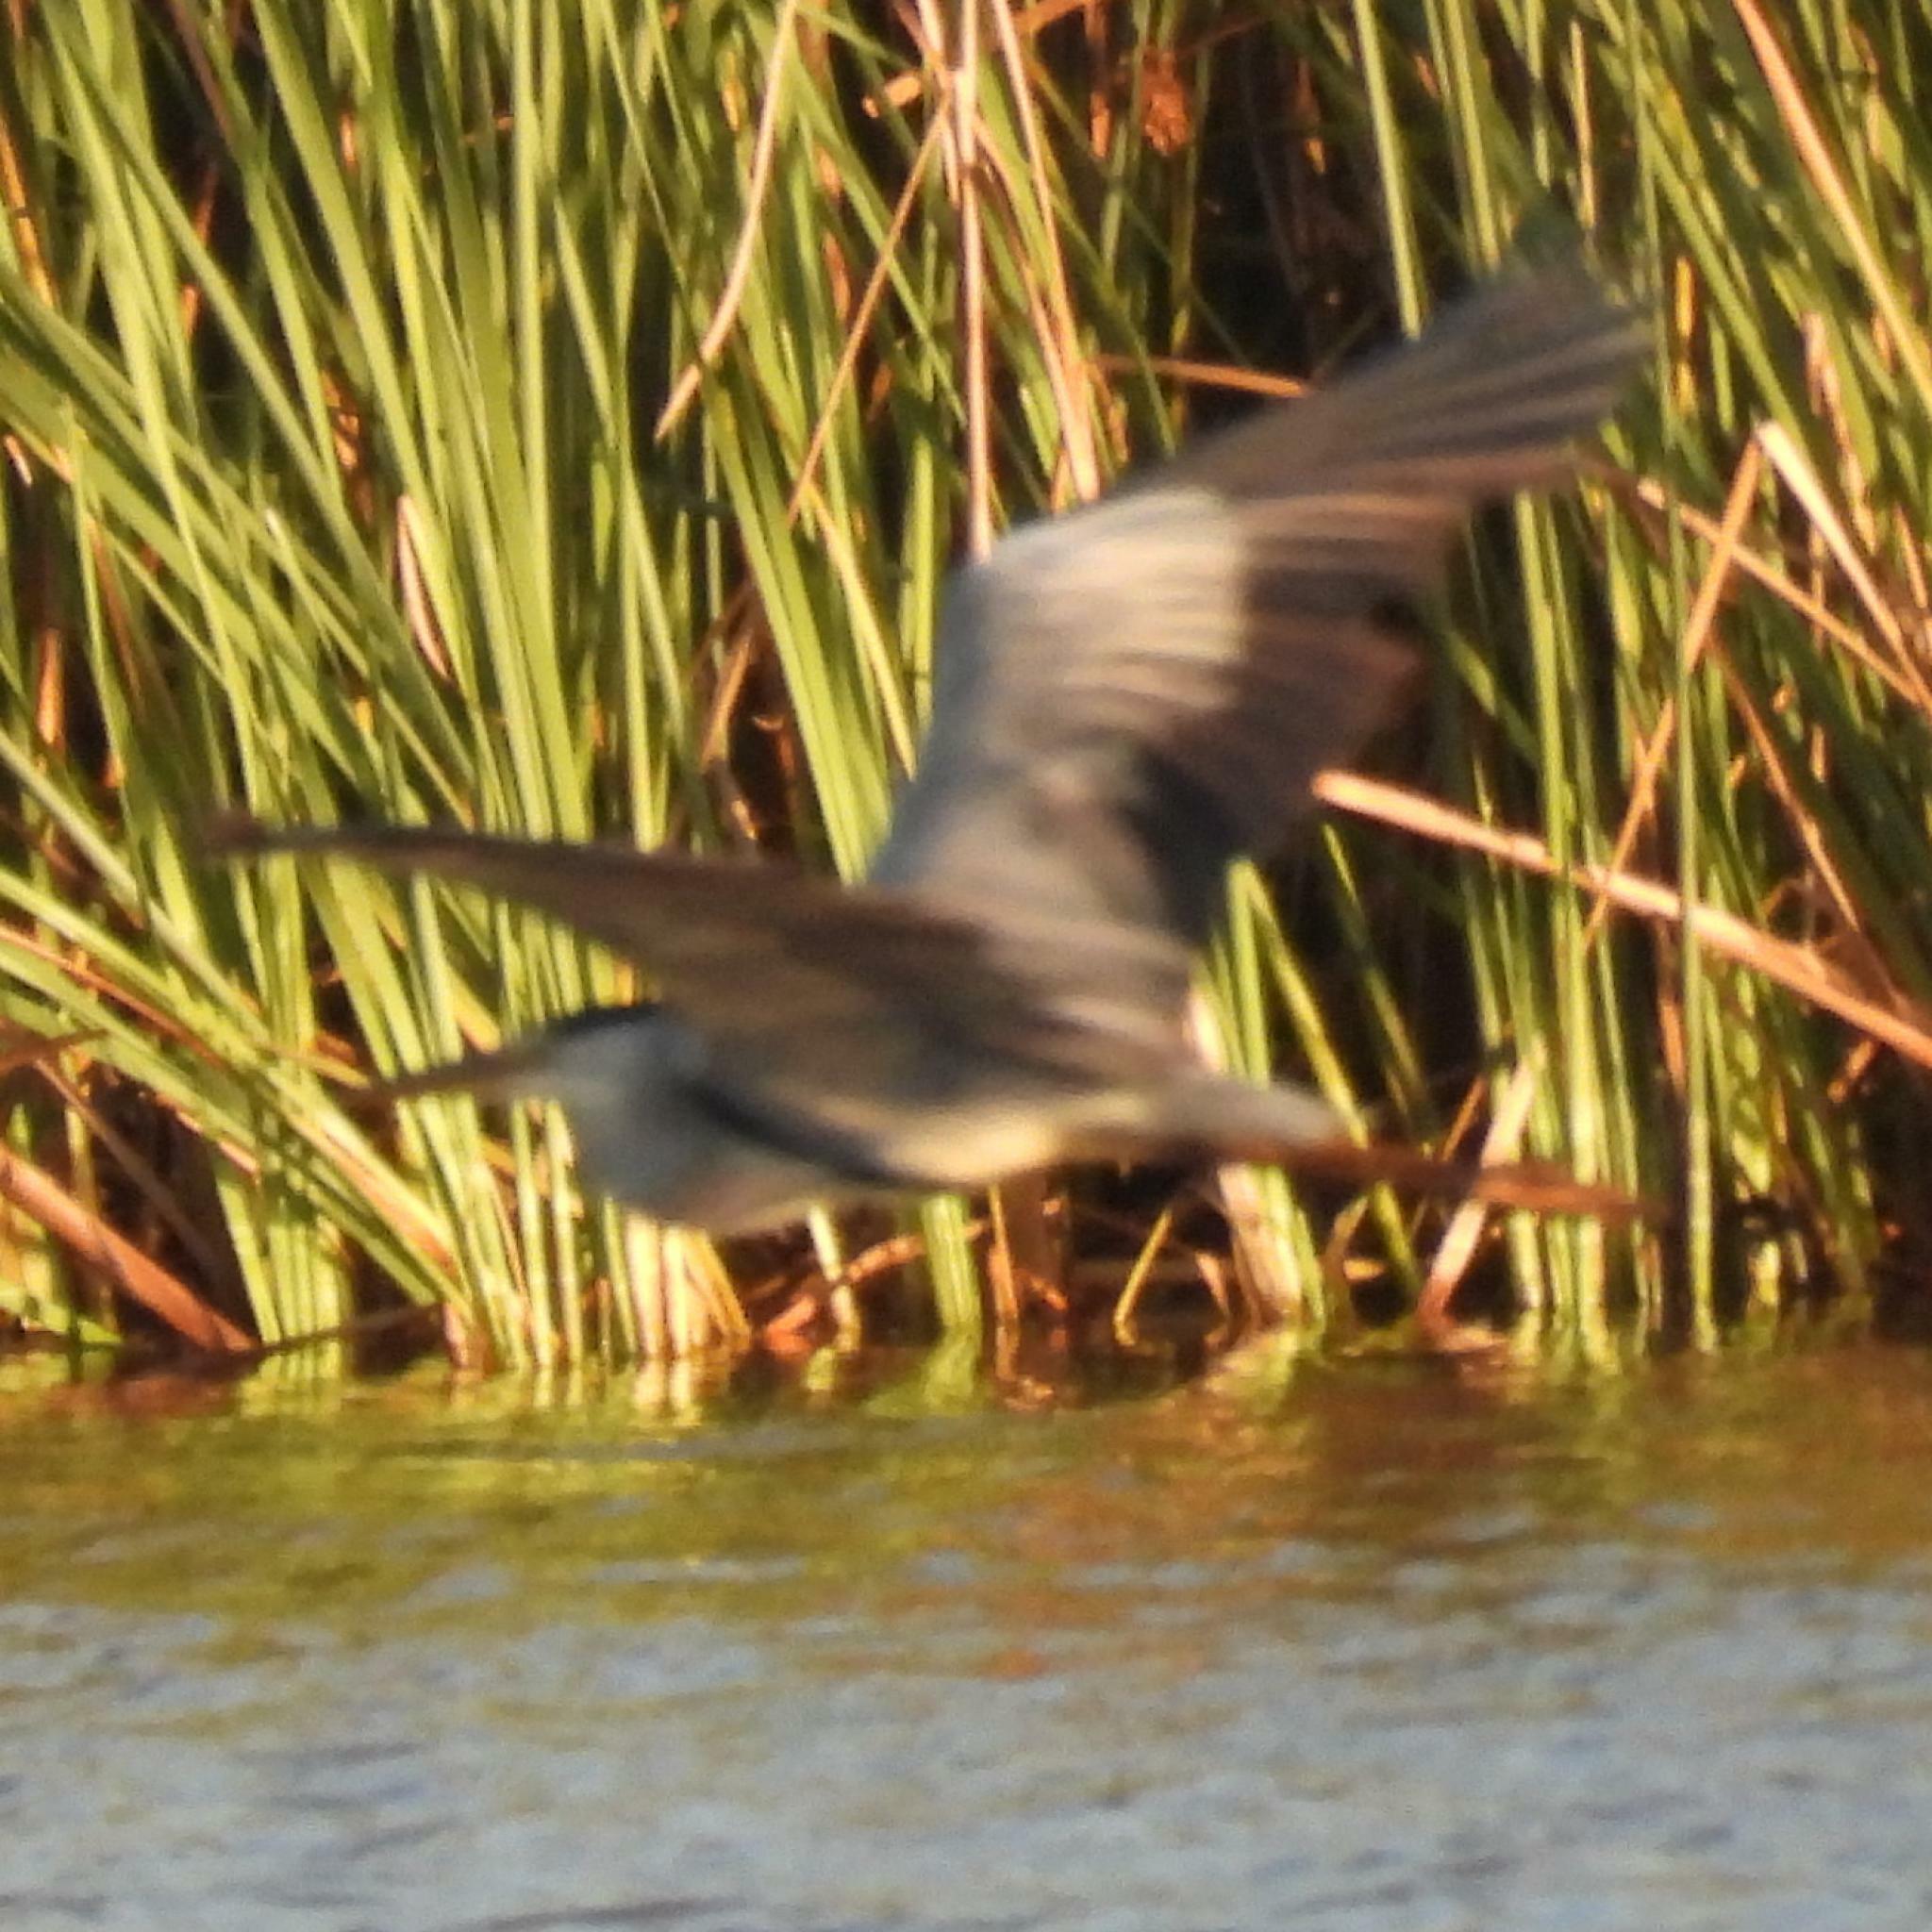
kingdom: Animalia
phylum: Chordata
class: Aves
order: Pelecaniformes
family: Ardeidae
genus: Ardea
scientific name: Ardea cinerea
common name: Grey heron
